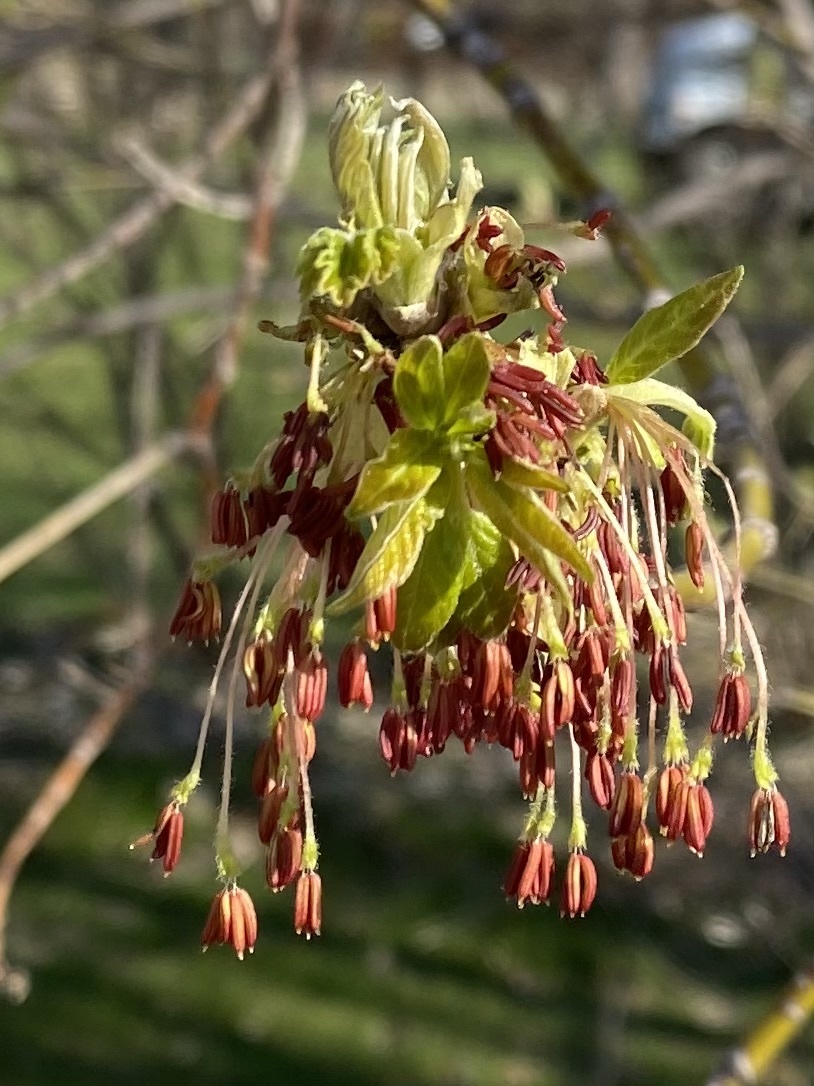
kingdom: Plantae
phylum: Tracheophyta
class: Magnoliopsida
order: Sapindales
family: Sapindaceae
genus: Acer
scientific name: Acer negundo
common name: Ashleaf maple
